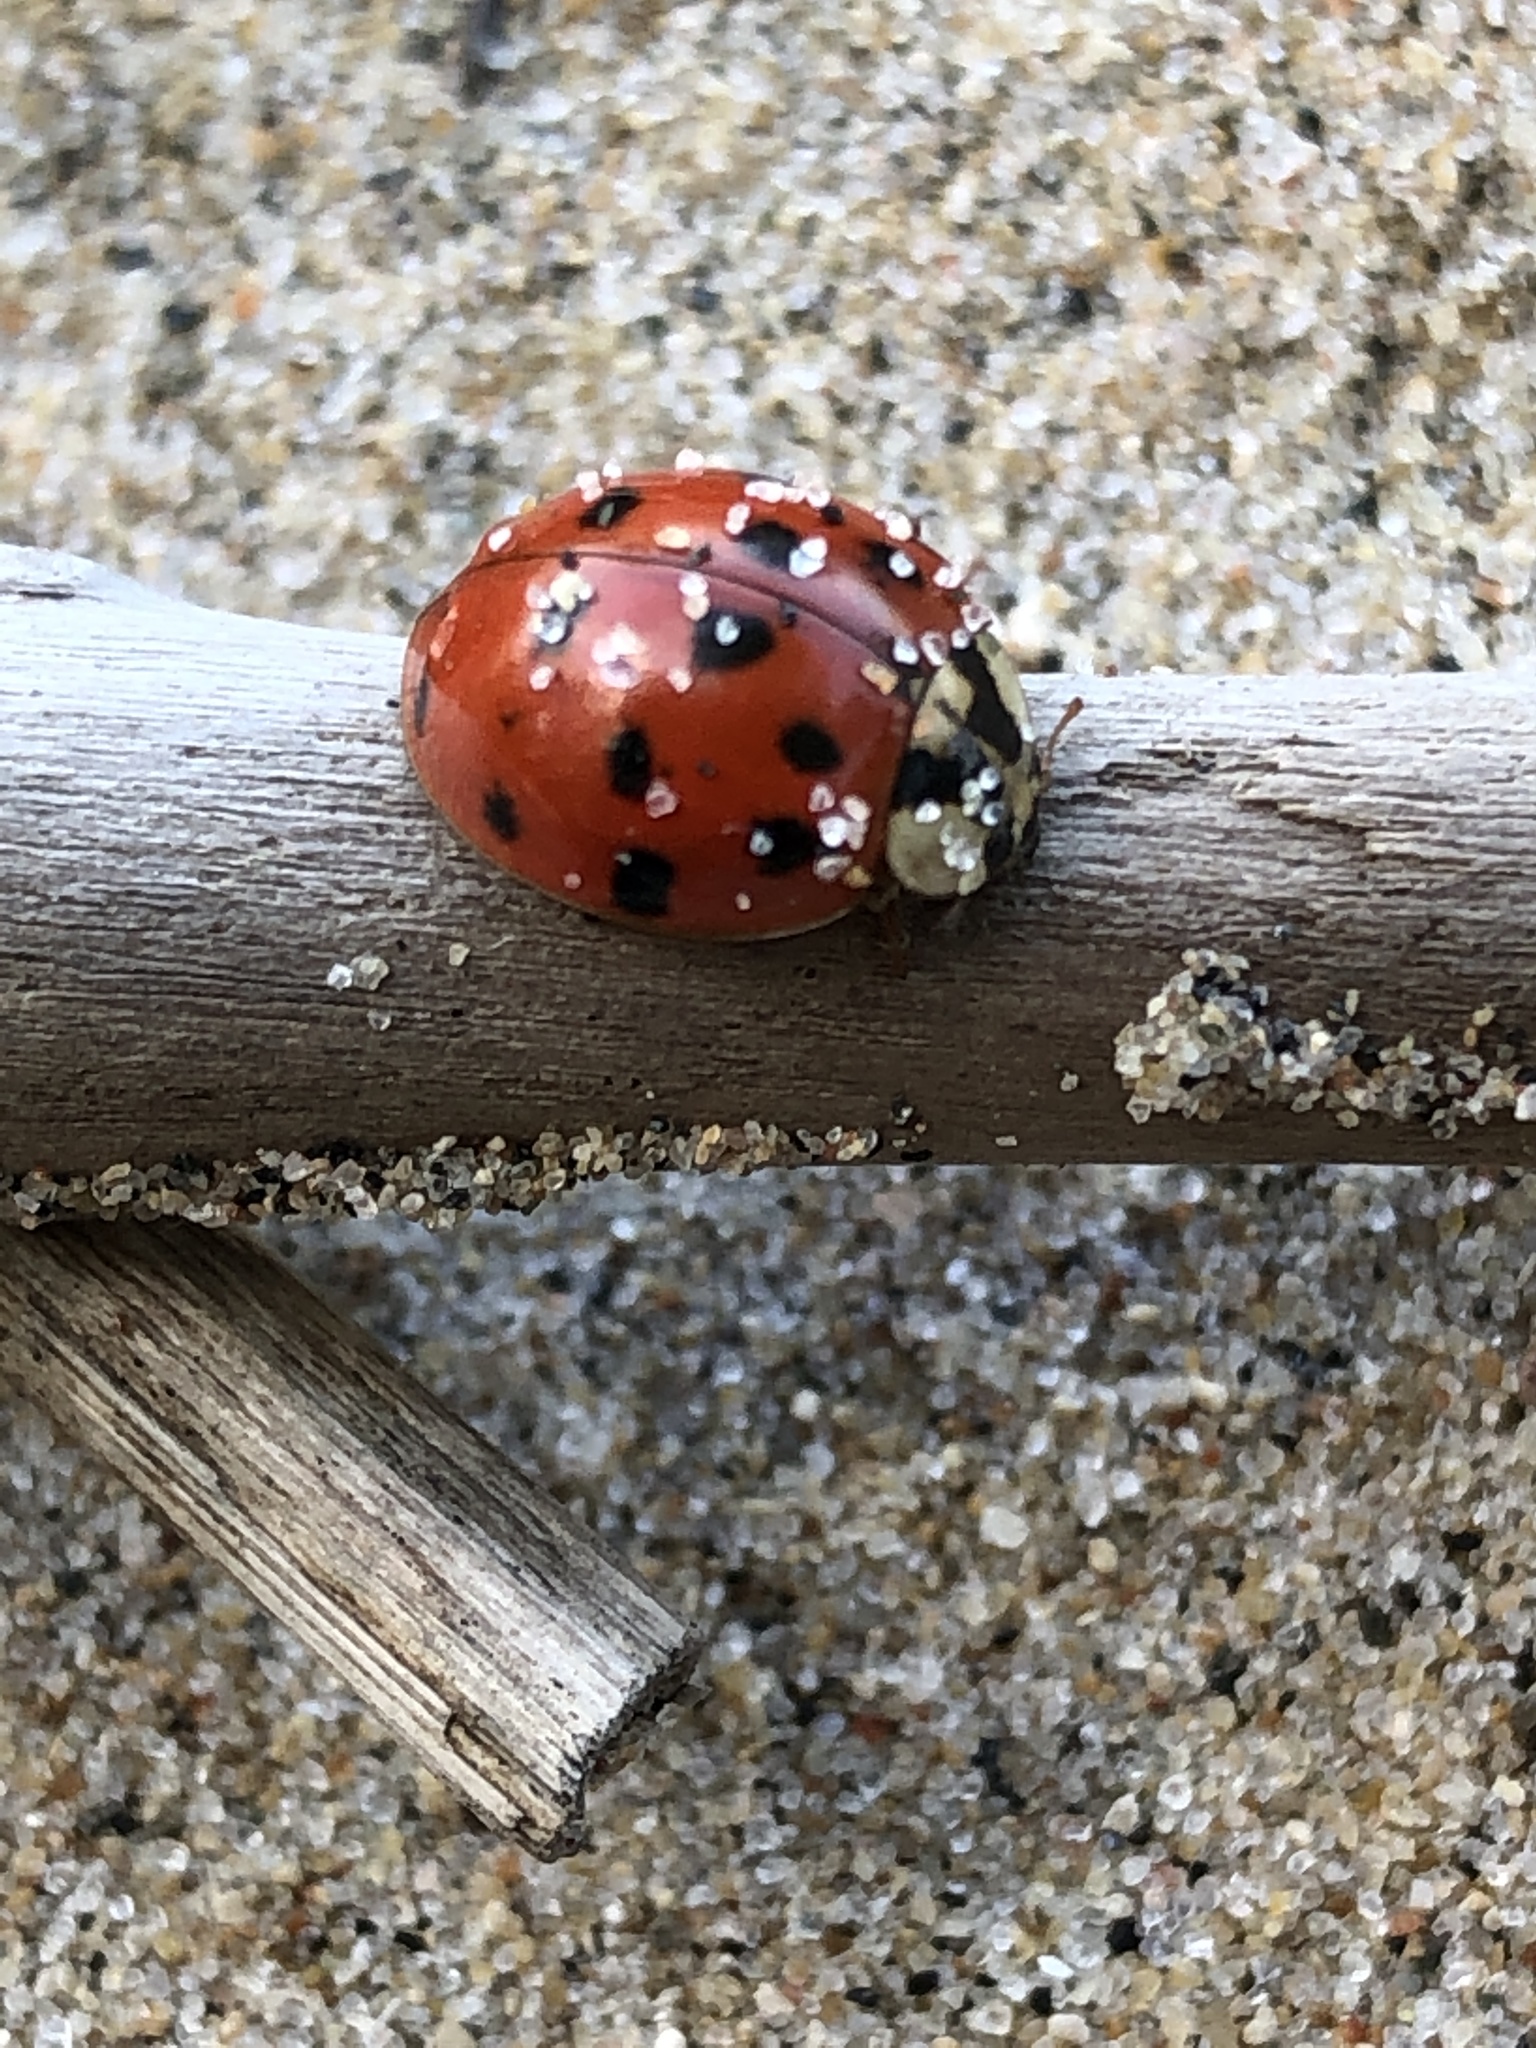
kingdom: Animalia
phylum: Arthropoda
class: Insecta
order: Coleoptera
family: Coccinellidae
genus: Harmonia
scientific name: Harmonia axyridis
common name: Harlequin ladybird
